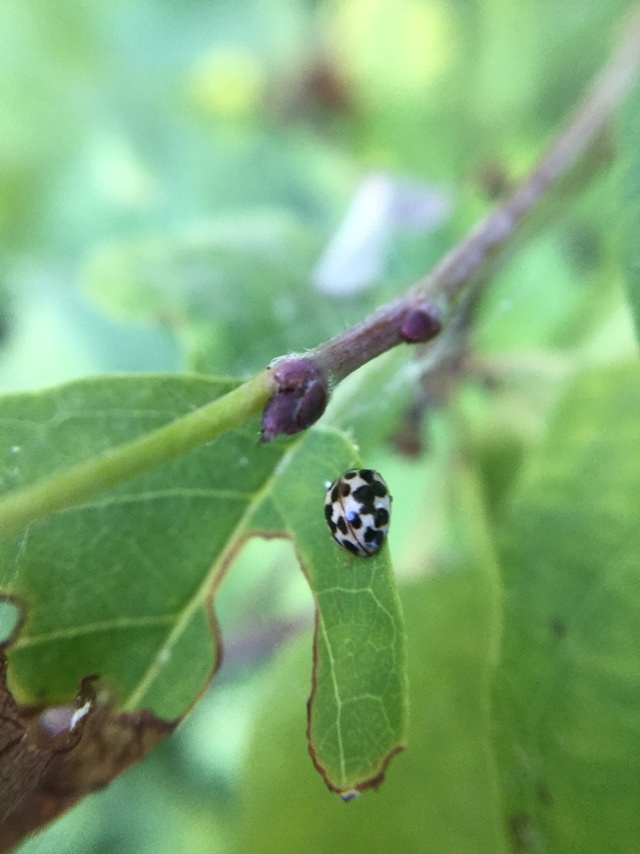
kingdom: Animalia
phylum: Arthropoda
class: Insecta
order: Coleoptera
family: Coccinellidae
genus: Psyllobora
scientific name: Psyllobora vigintimaculata
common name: Ladybird beetle
